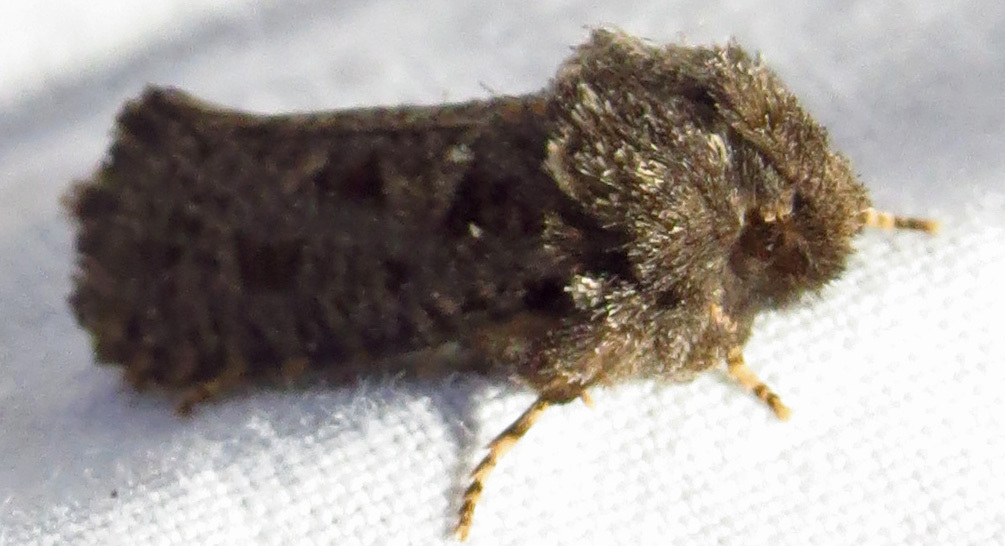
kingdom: Animalia
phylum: Arthropoda
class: Insecta
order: Lepidoptera
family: Tineidae
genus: Acrolophus
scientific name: Acrolophus arcanella
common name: Arcane grass tubeworm moth
